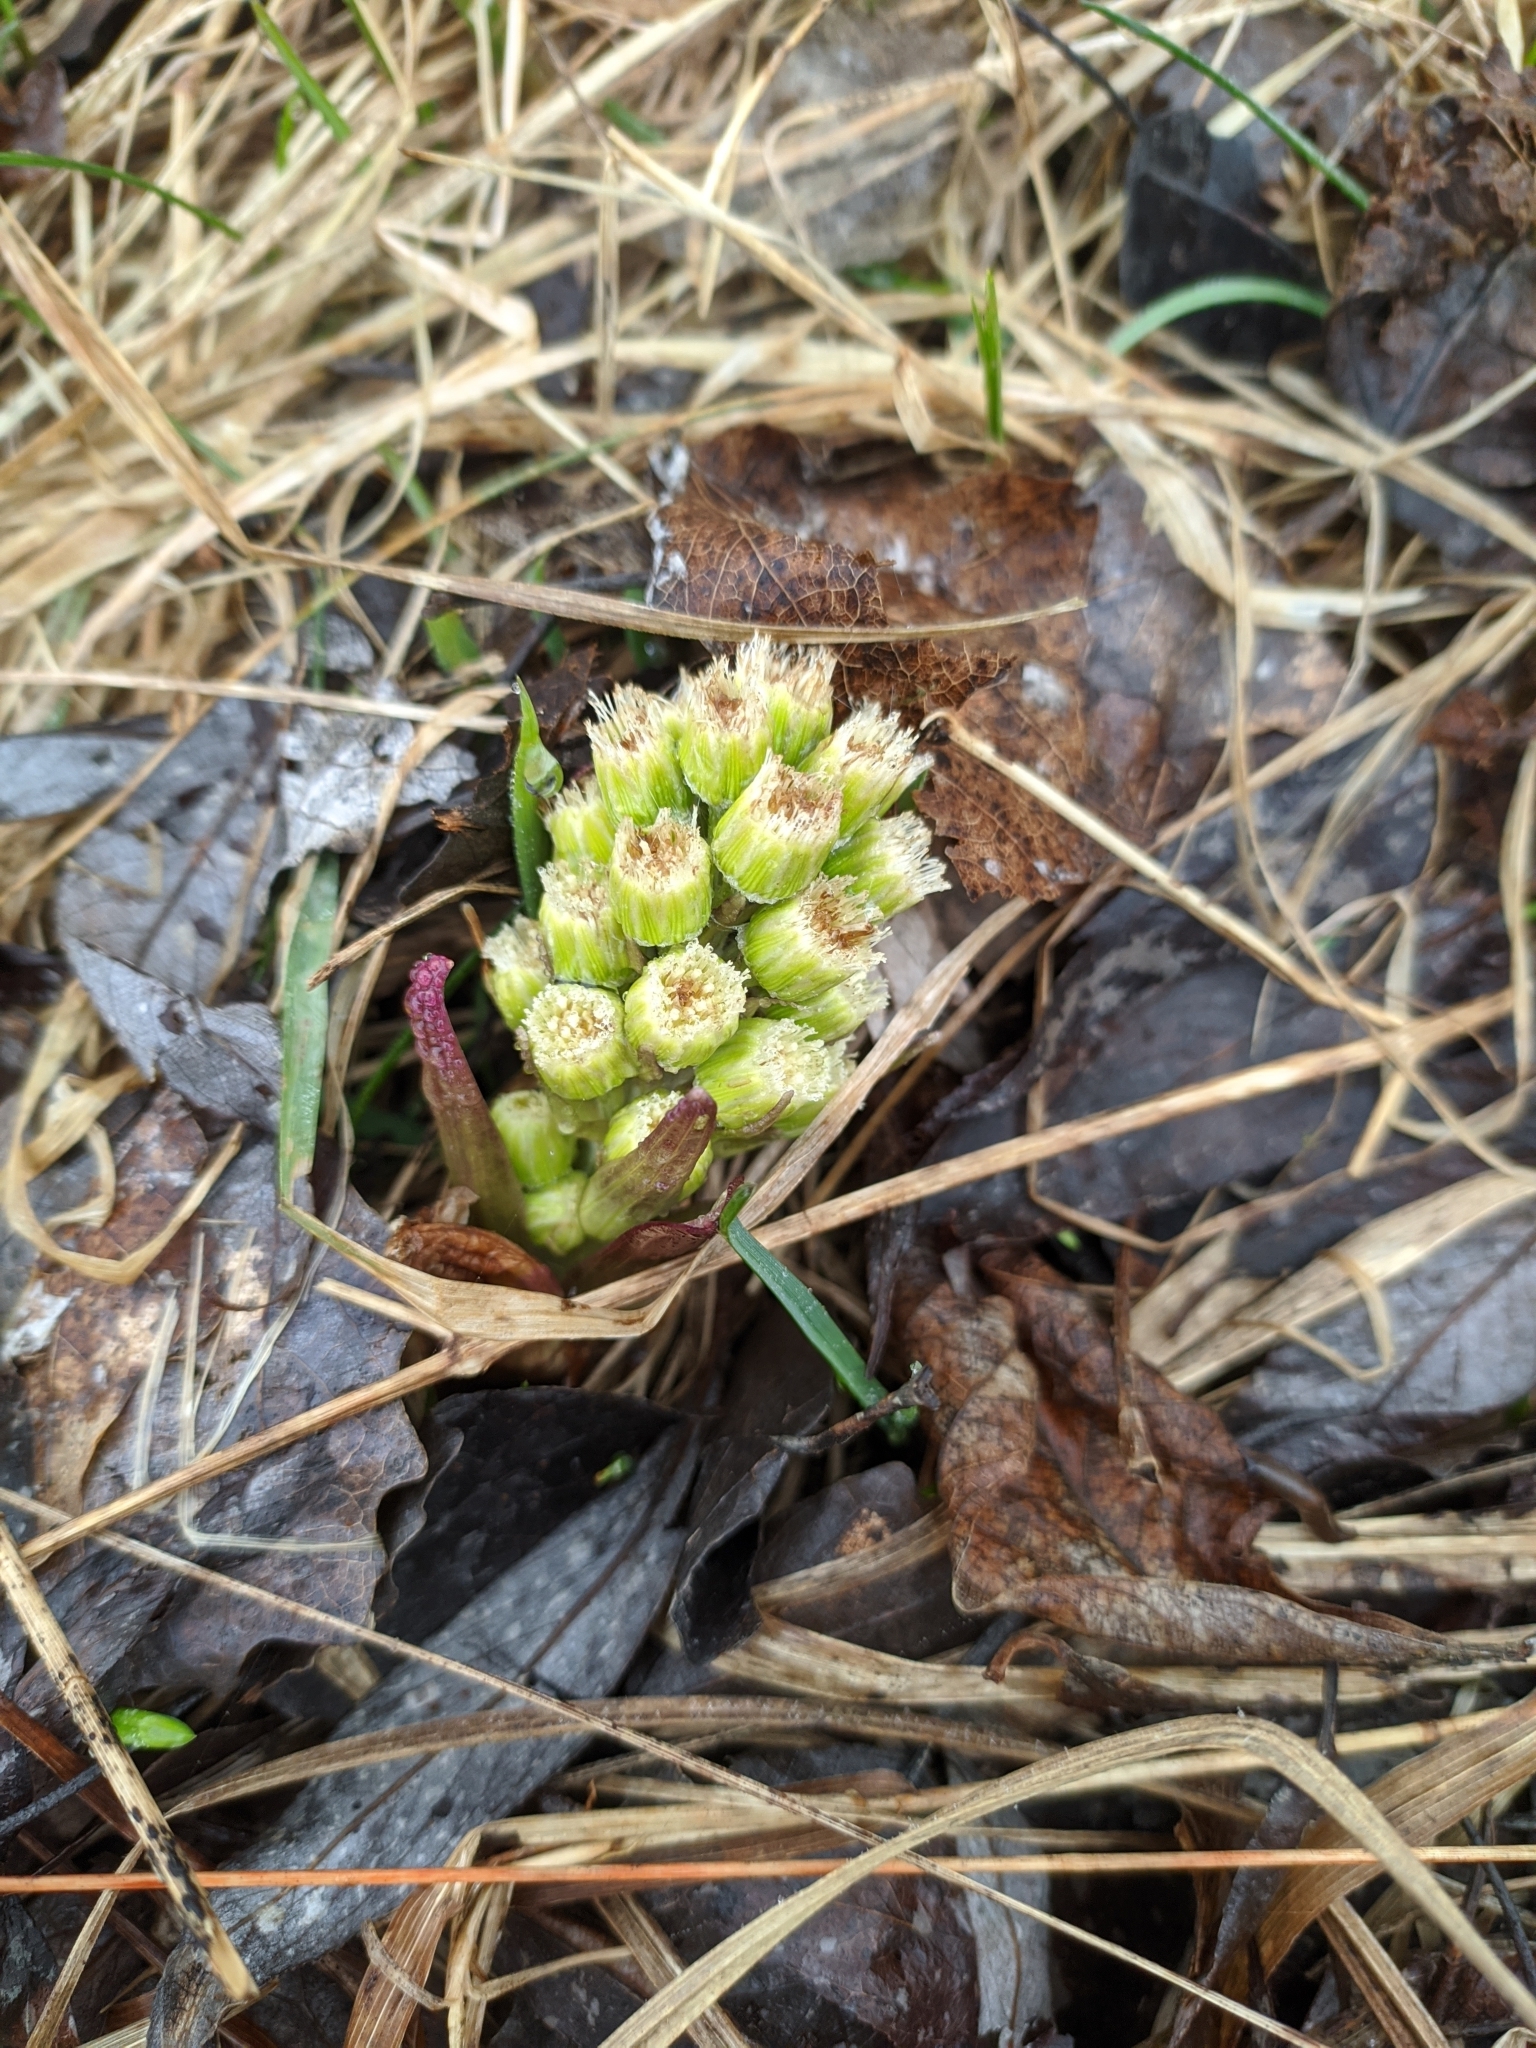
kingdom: Plantae
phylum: Tracheophyta
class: Magnoliopsida
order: Asterales
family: Asteraceae
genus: Petasites
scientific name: Petasites spurius
